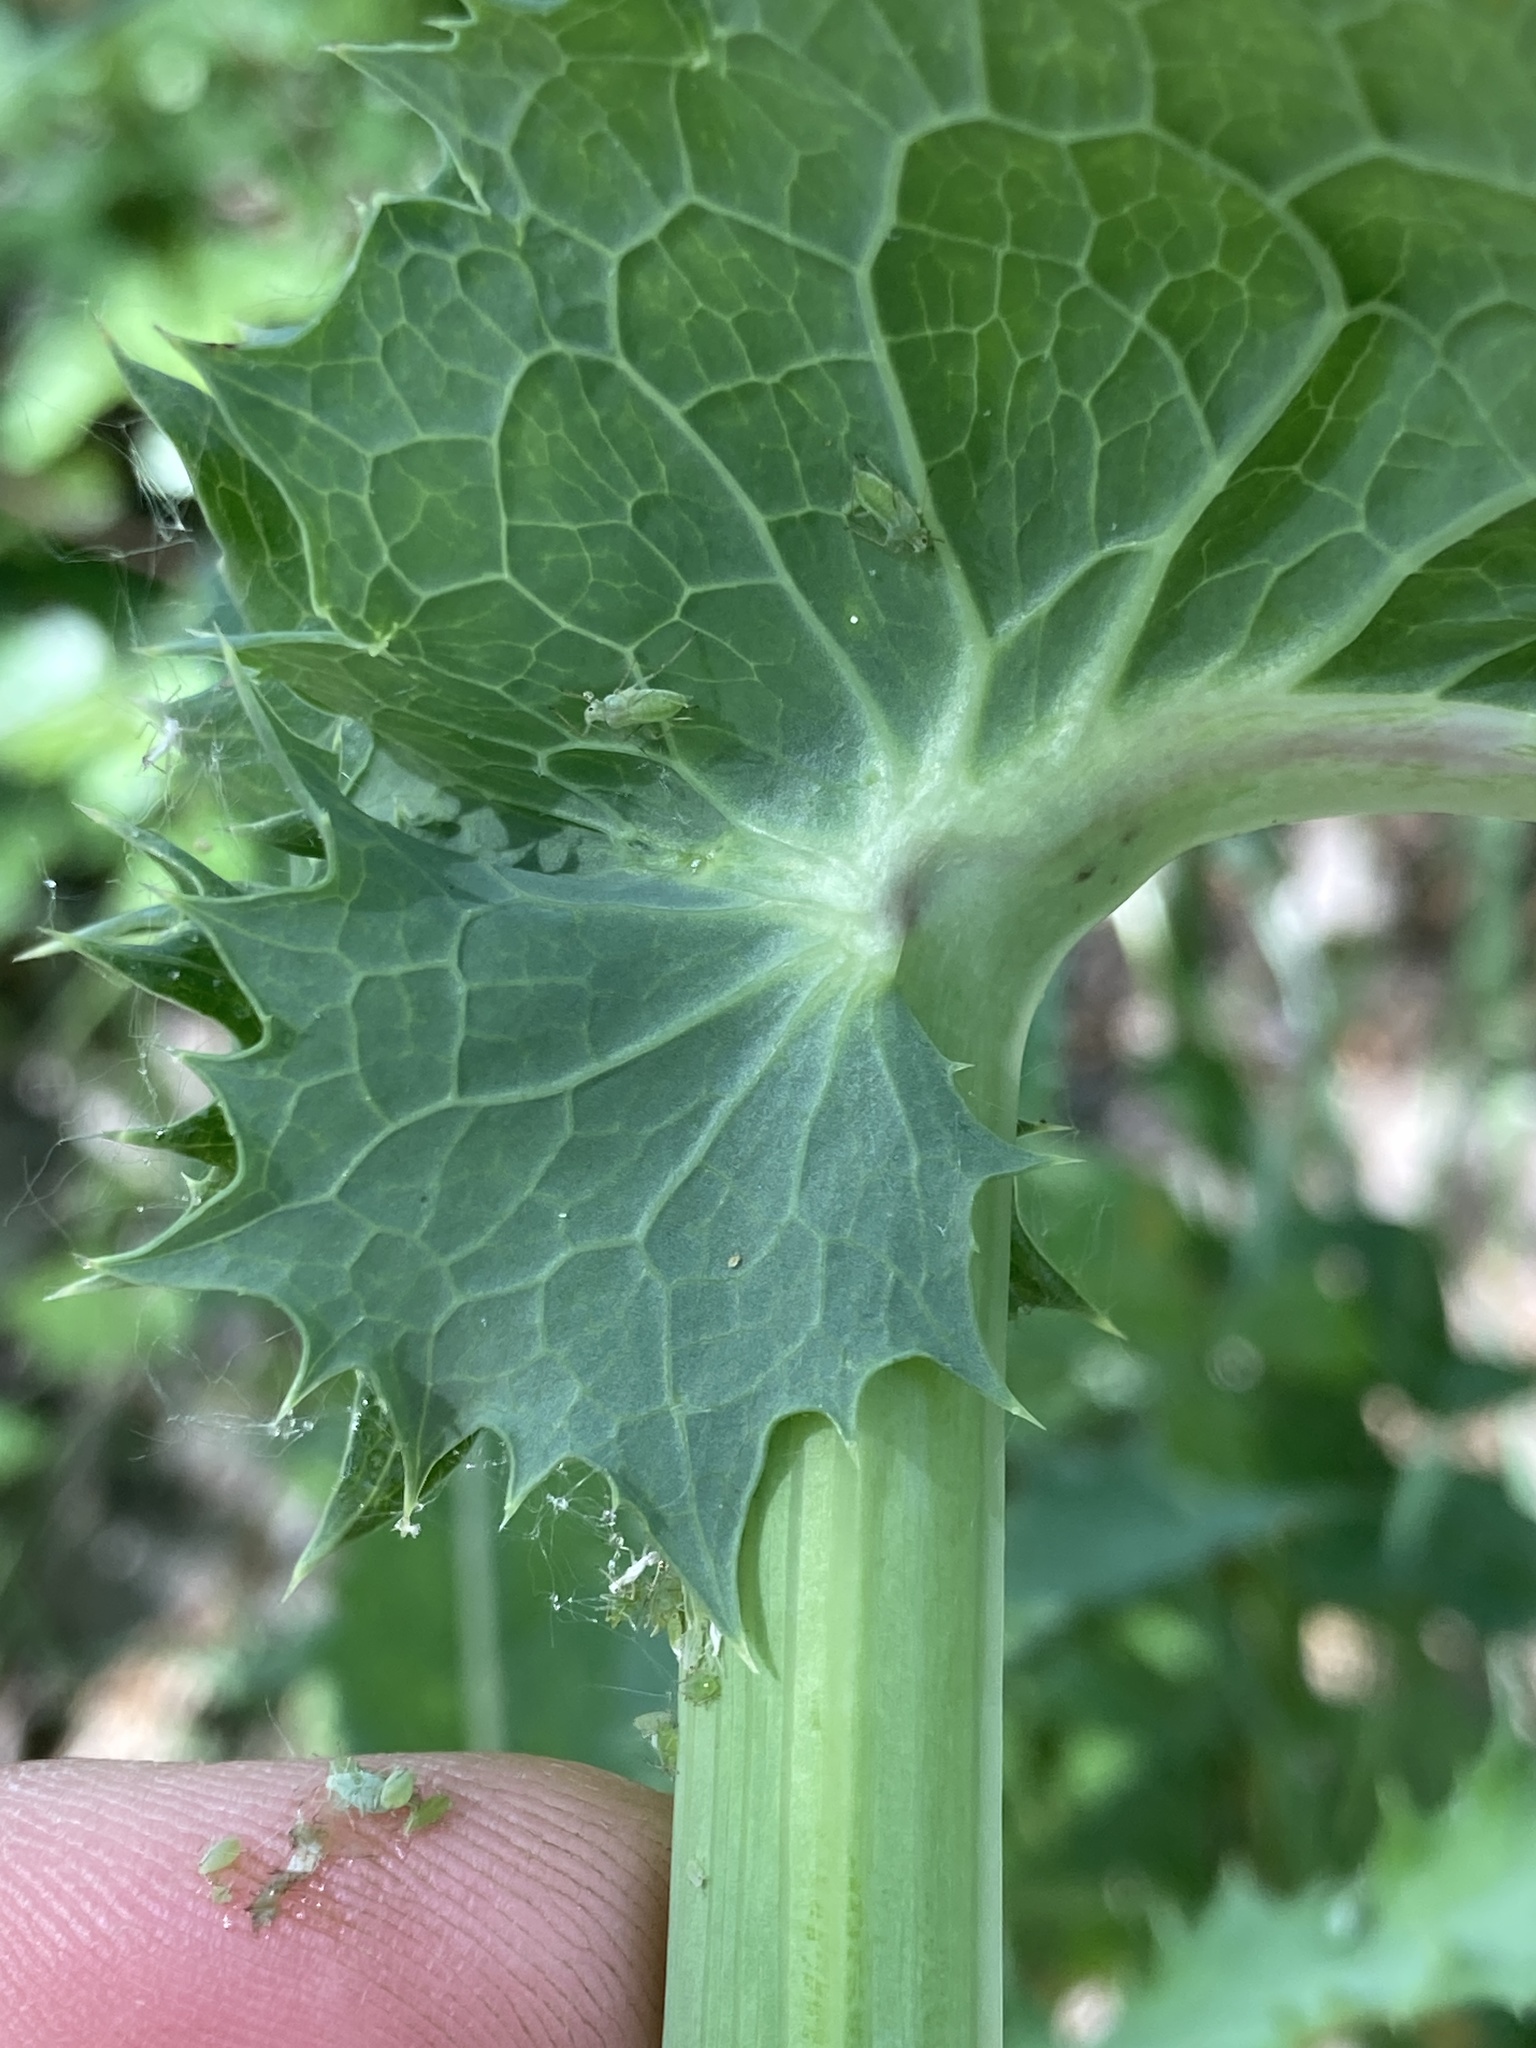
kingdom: Plantae
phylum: Tracheophyta
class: Magnoliopsida
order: Asterales
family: Asteraceae
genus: Sonchus
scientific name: Sonchus asper
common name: Prickly sow-thistle
